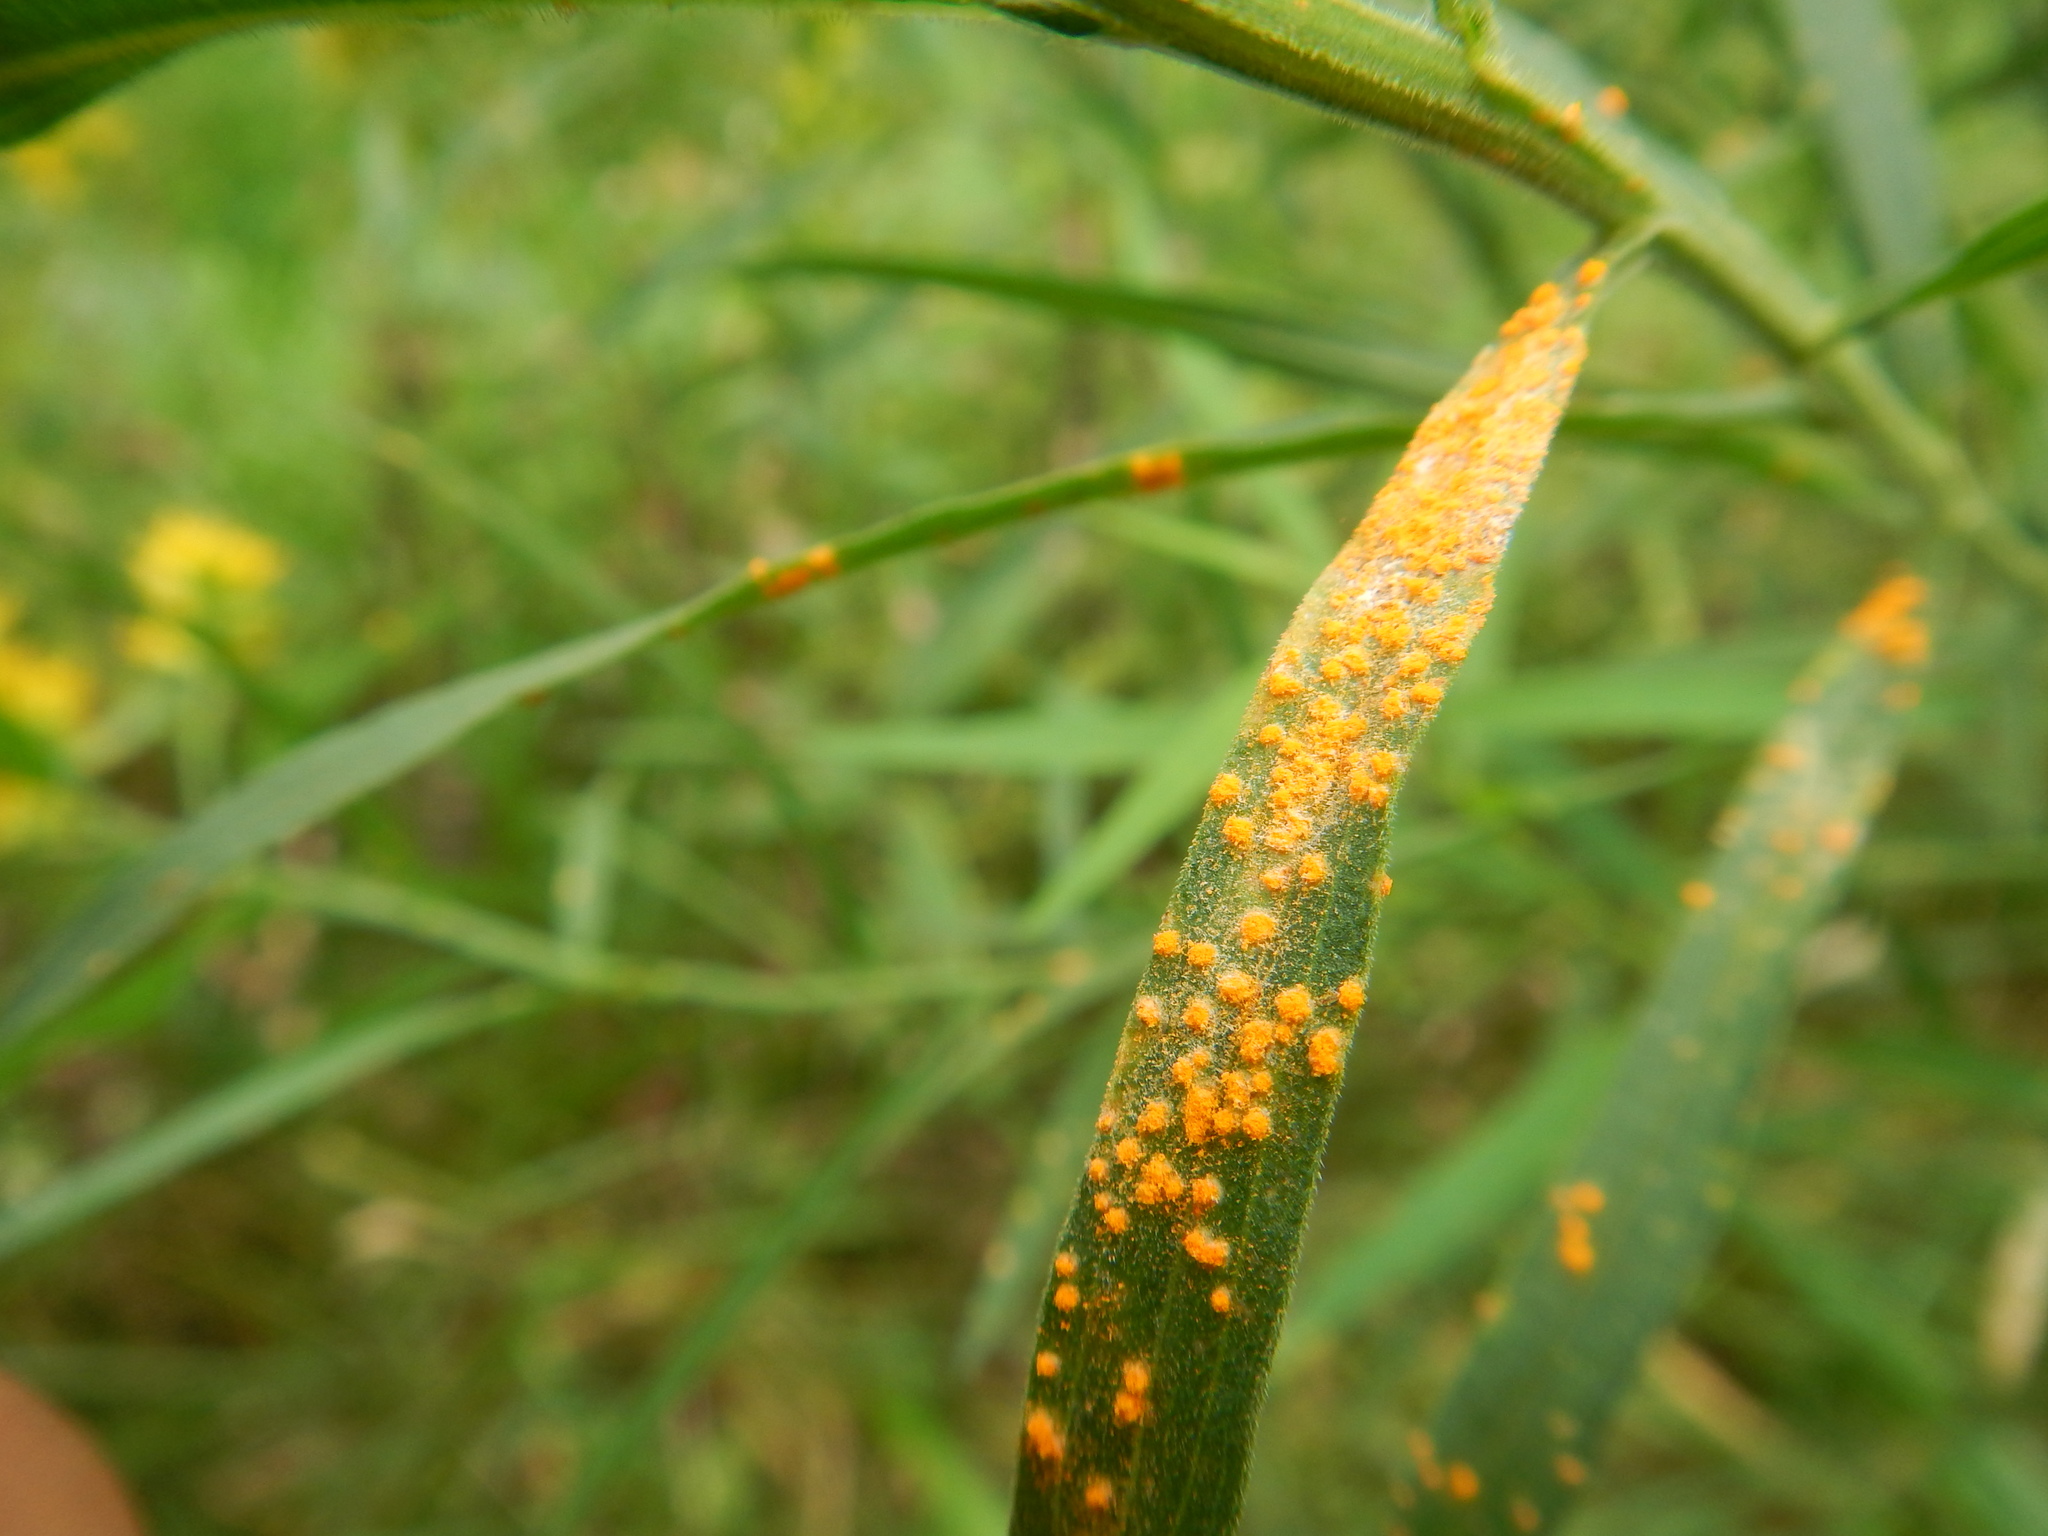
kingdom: Fungi
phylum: Basidiomycota
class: Pucciniomycetes
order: Pucciniales
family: Coleosporiaceae
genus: Coleosporium
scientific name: Coleosporium asterum
